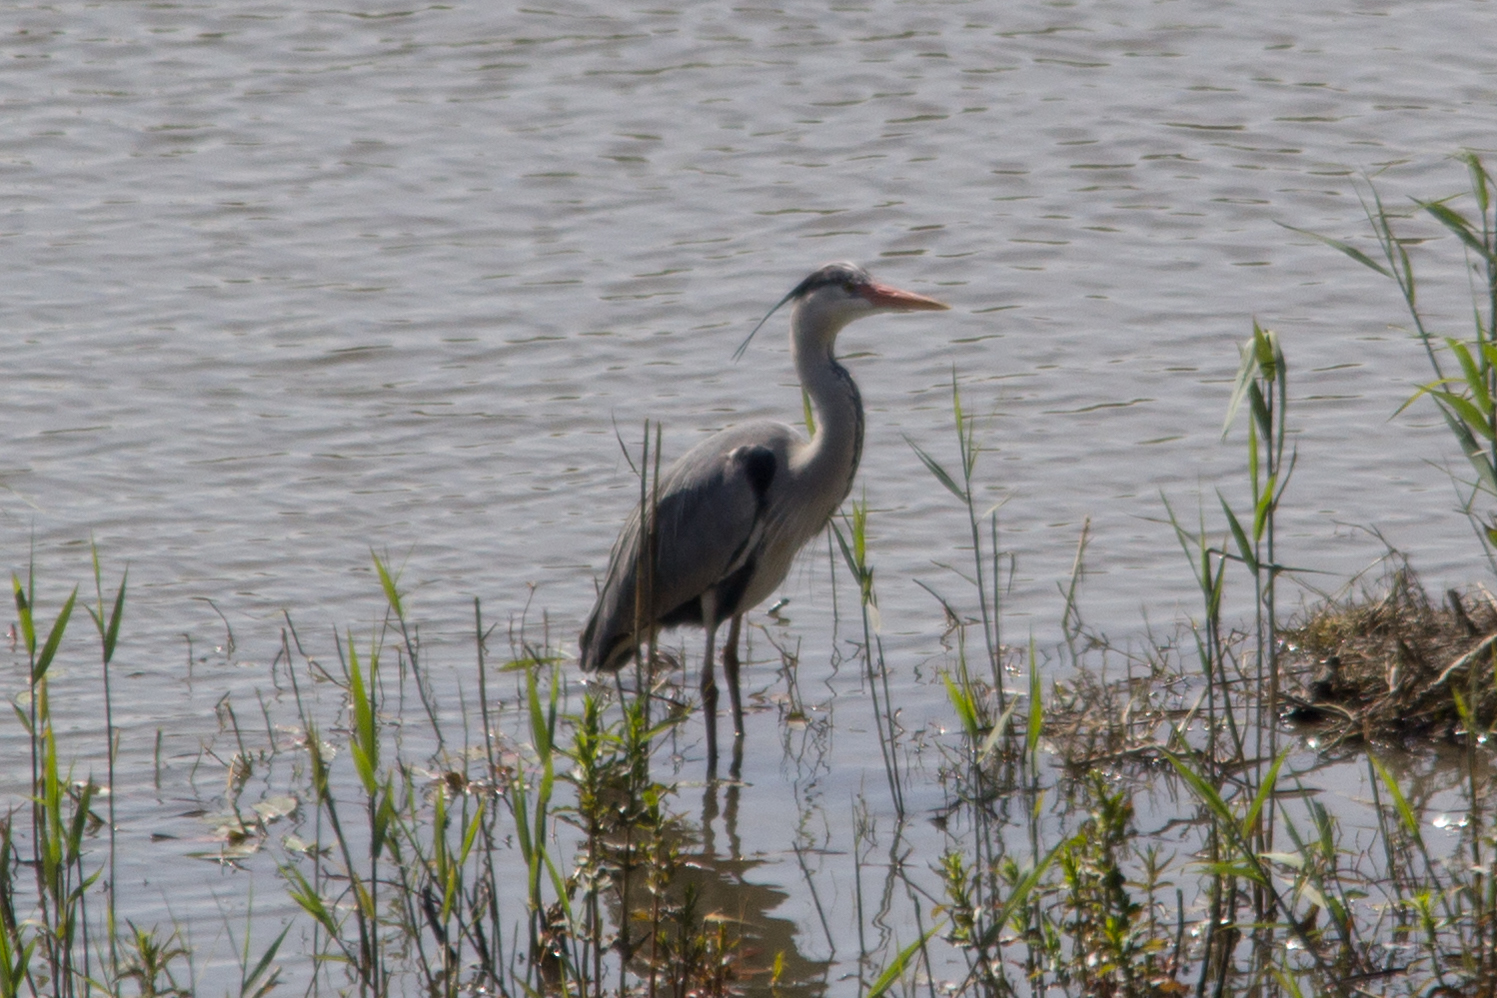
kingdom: Animalia
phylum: Chordata
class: Aves
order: Pelecaniformes
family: Ardeidae
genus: Ardea
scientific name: Ardea cinerea
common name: Grey heron
